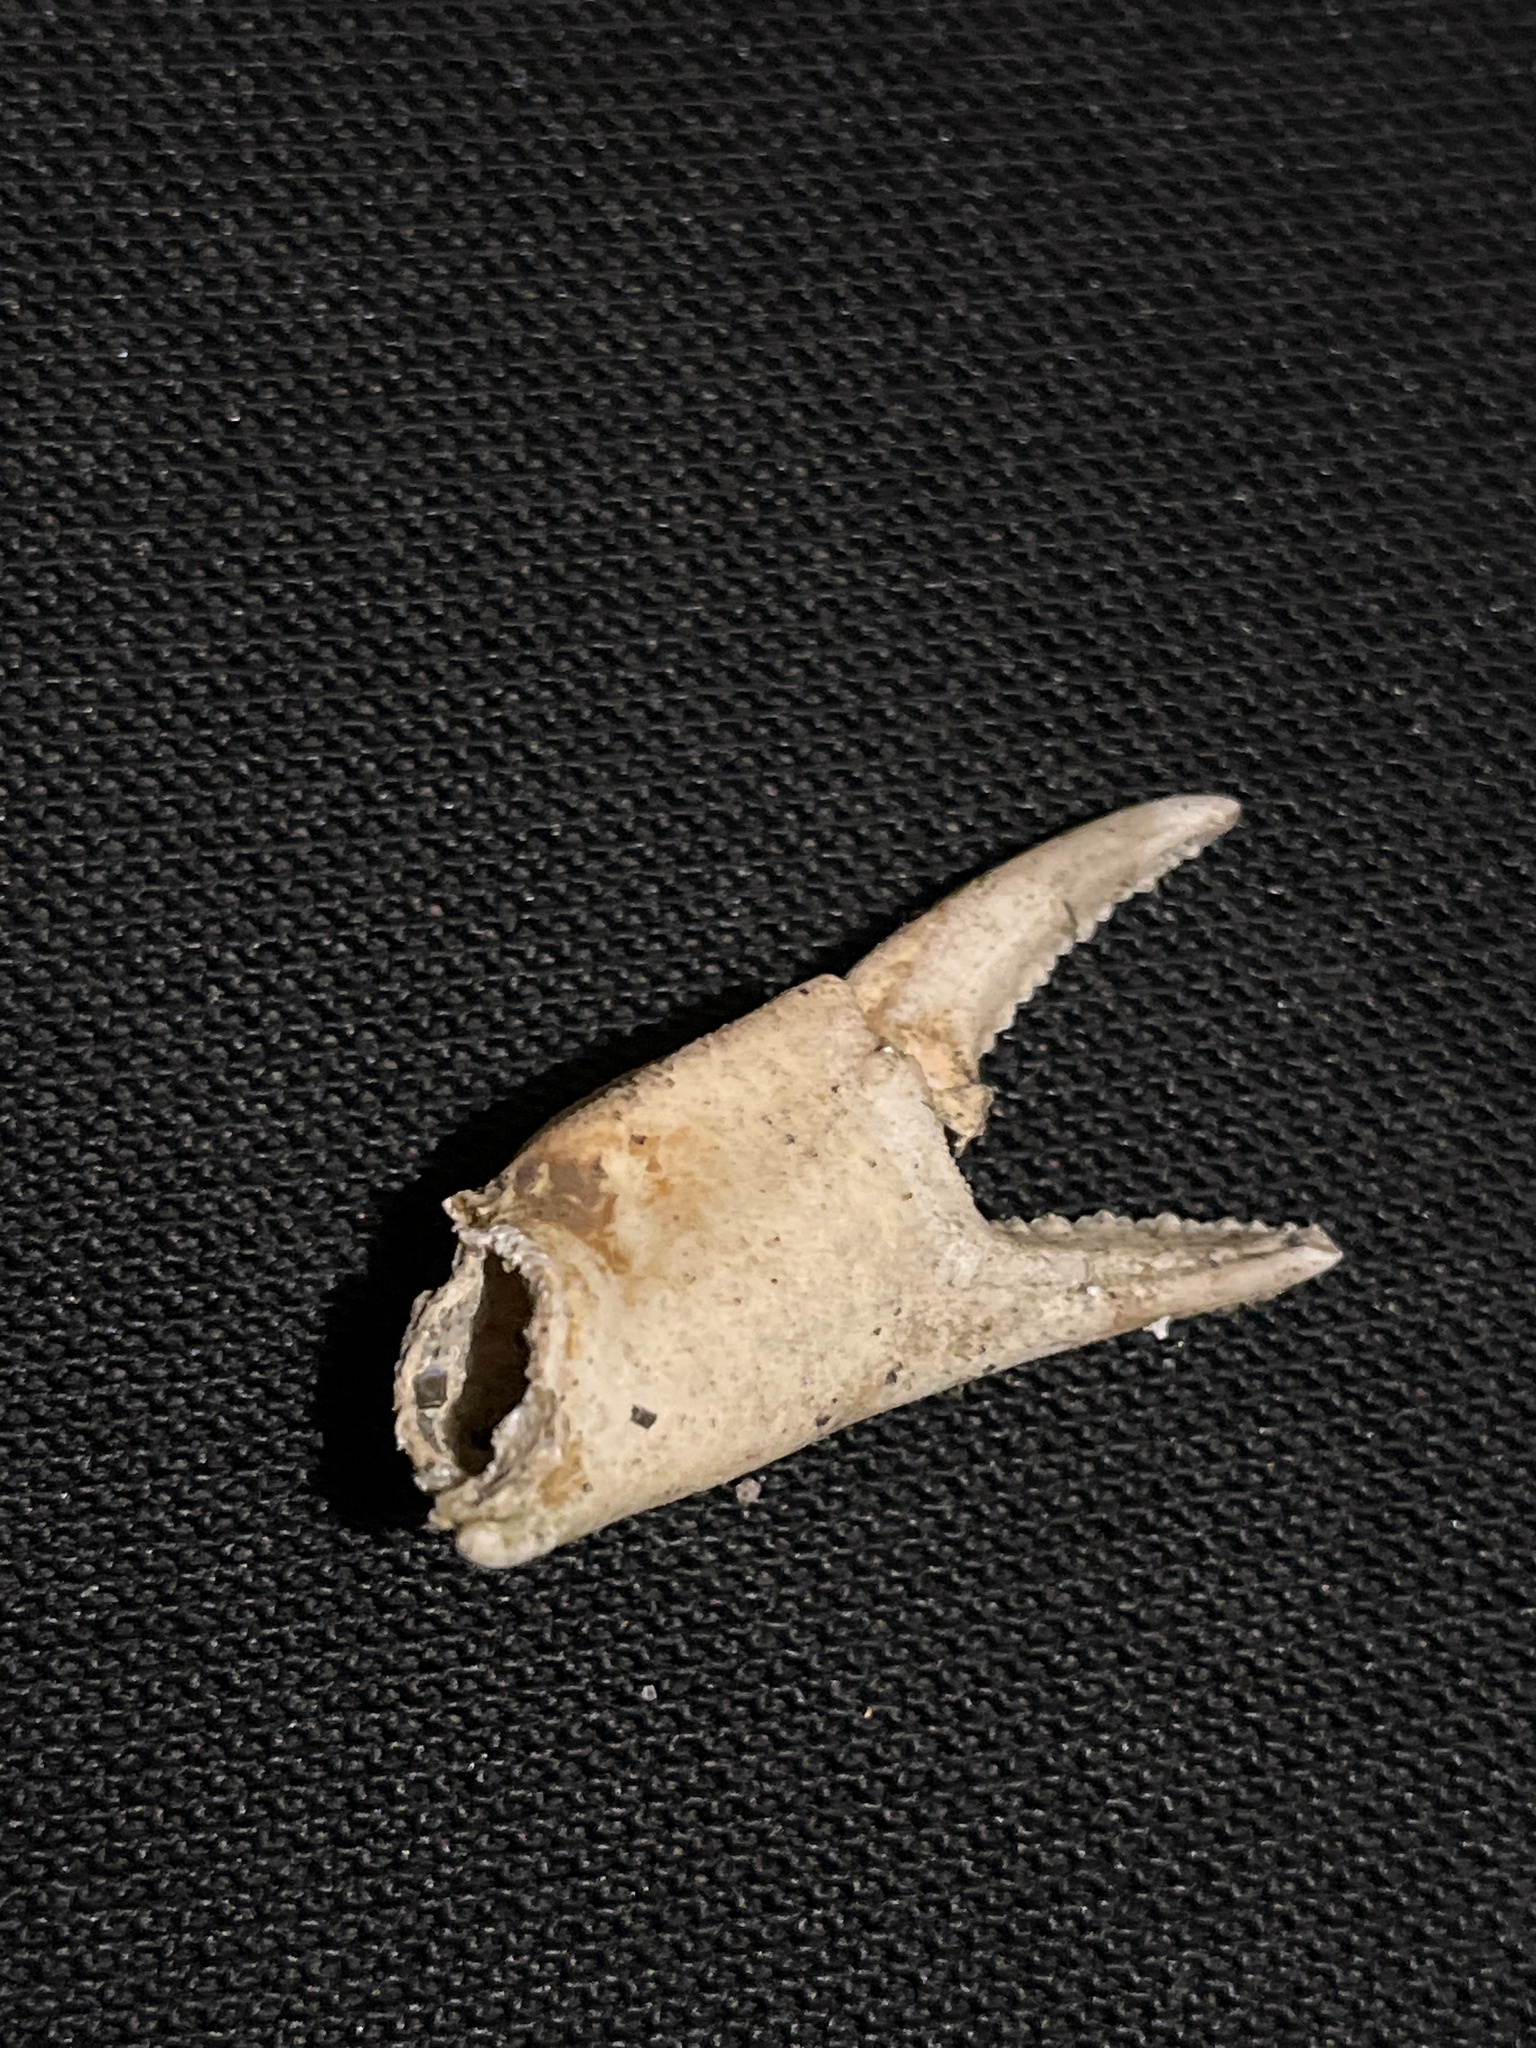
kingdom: Animalia
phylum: Arthropoda
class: Malacostraca
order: Decapoda
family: Carcinidae
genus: Carcinus
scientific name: Carcinus maenas
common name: European green crab
